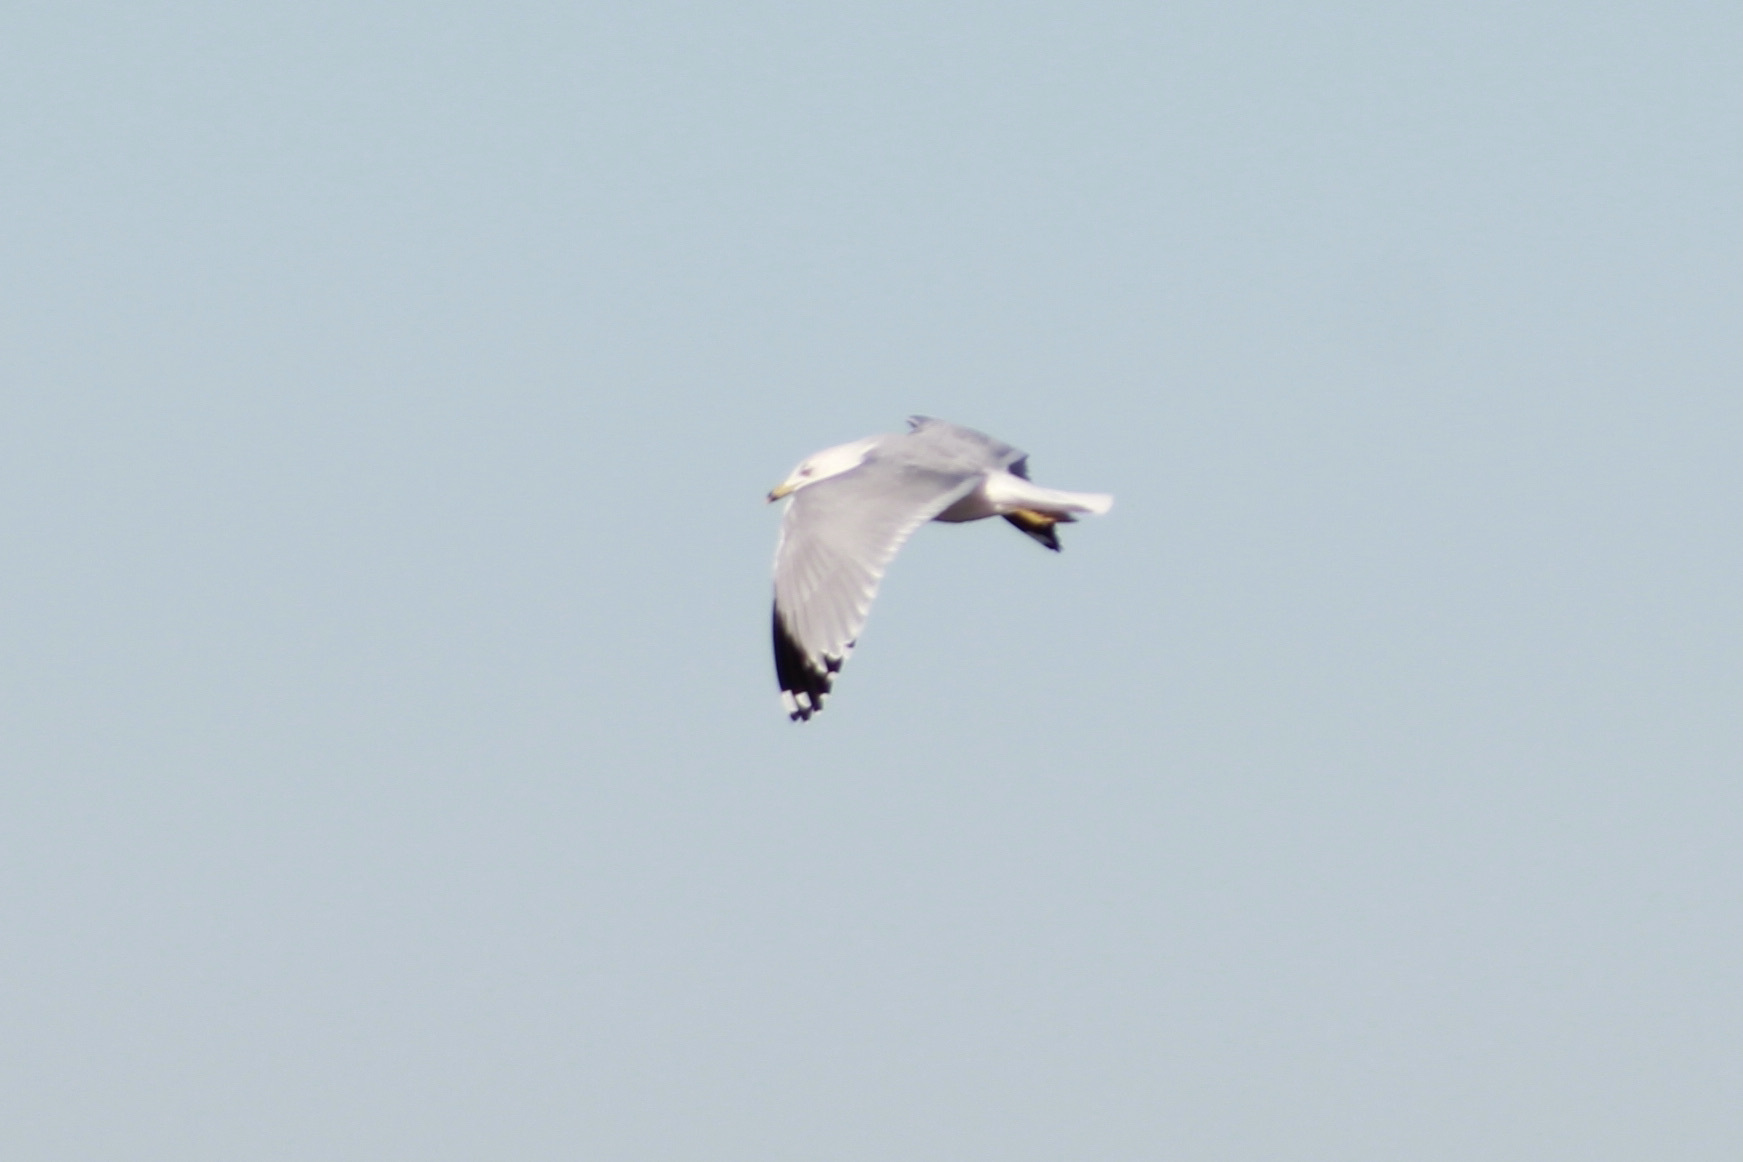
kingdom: Animalia
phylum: Chordata
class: Aves
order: Charadriiformes
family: Laridae
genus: Larus
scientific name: Larus delawarensis
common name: Ring-billed gull
